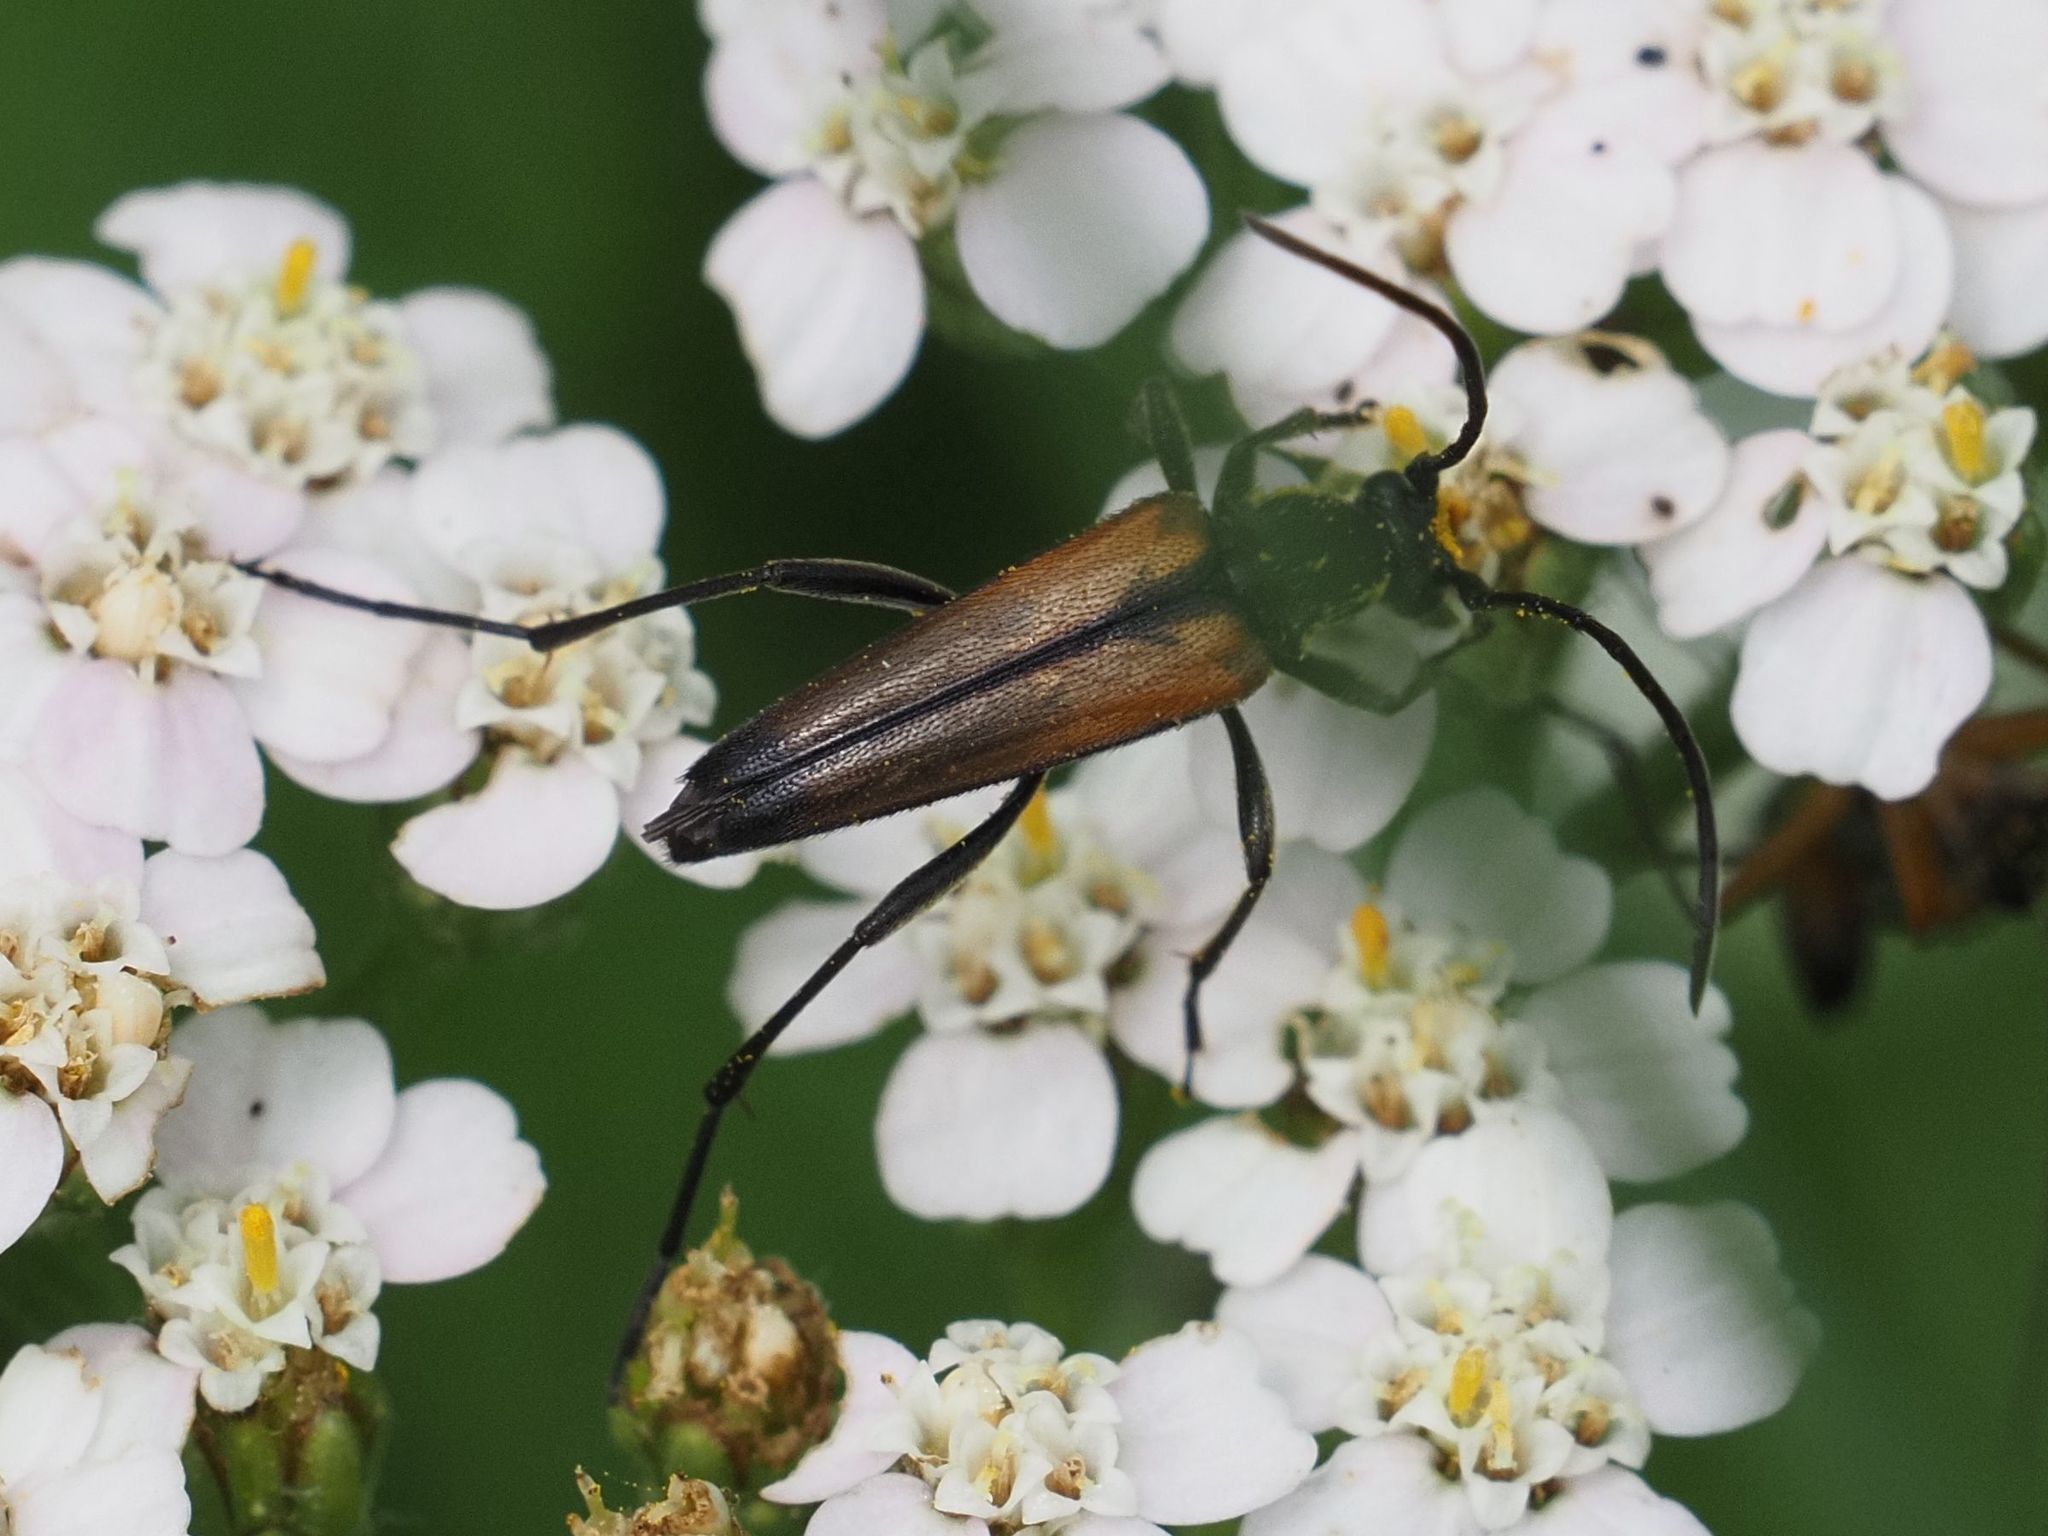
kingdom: Animalia
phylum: Arthropoda
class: Insecta
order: Coleoptera
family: Cerambycidae
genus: Stenurella
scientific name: Stenurella melanura
